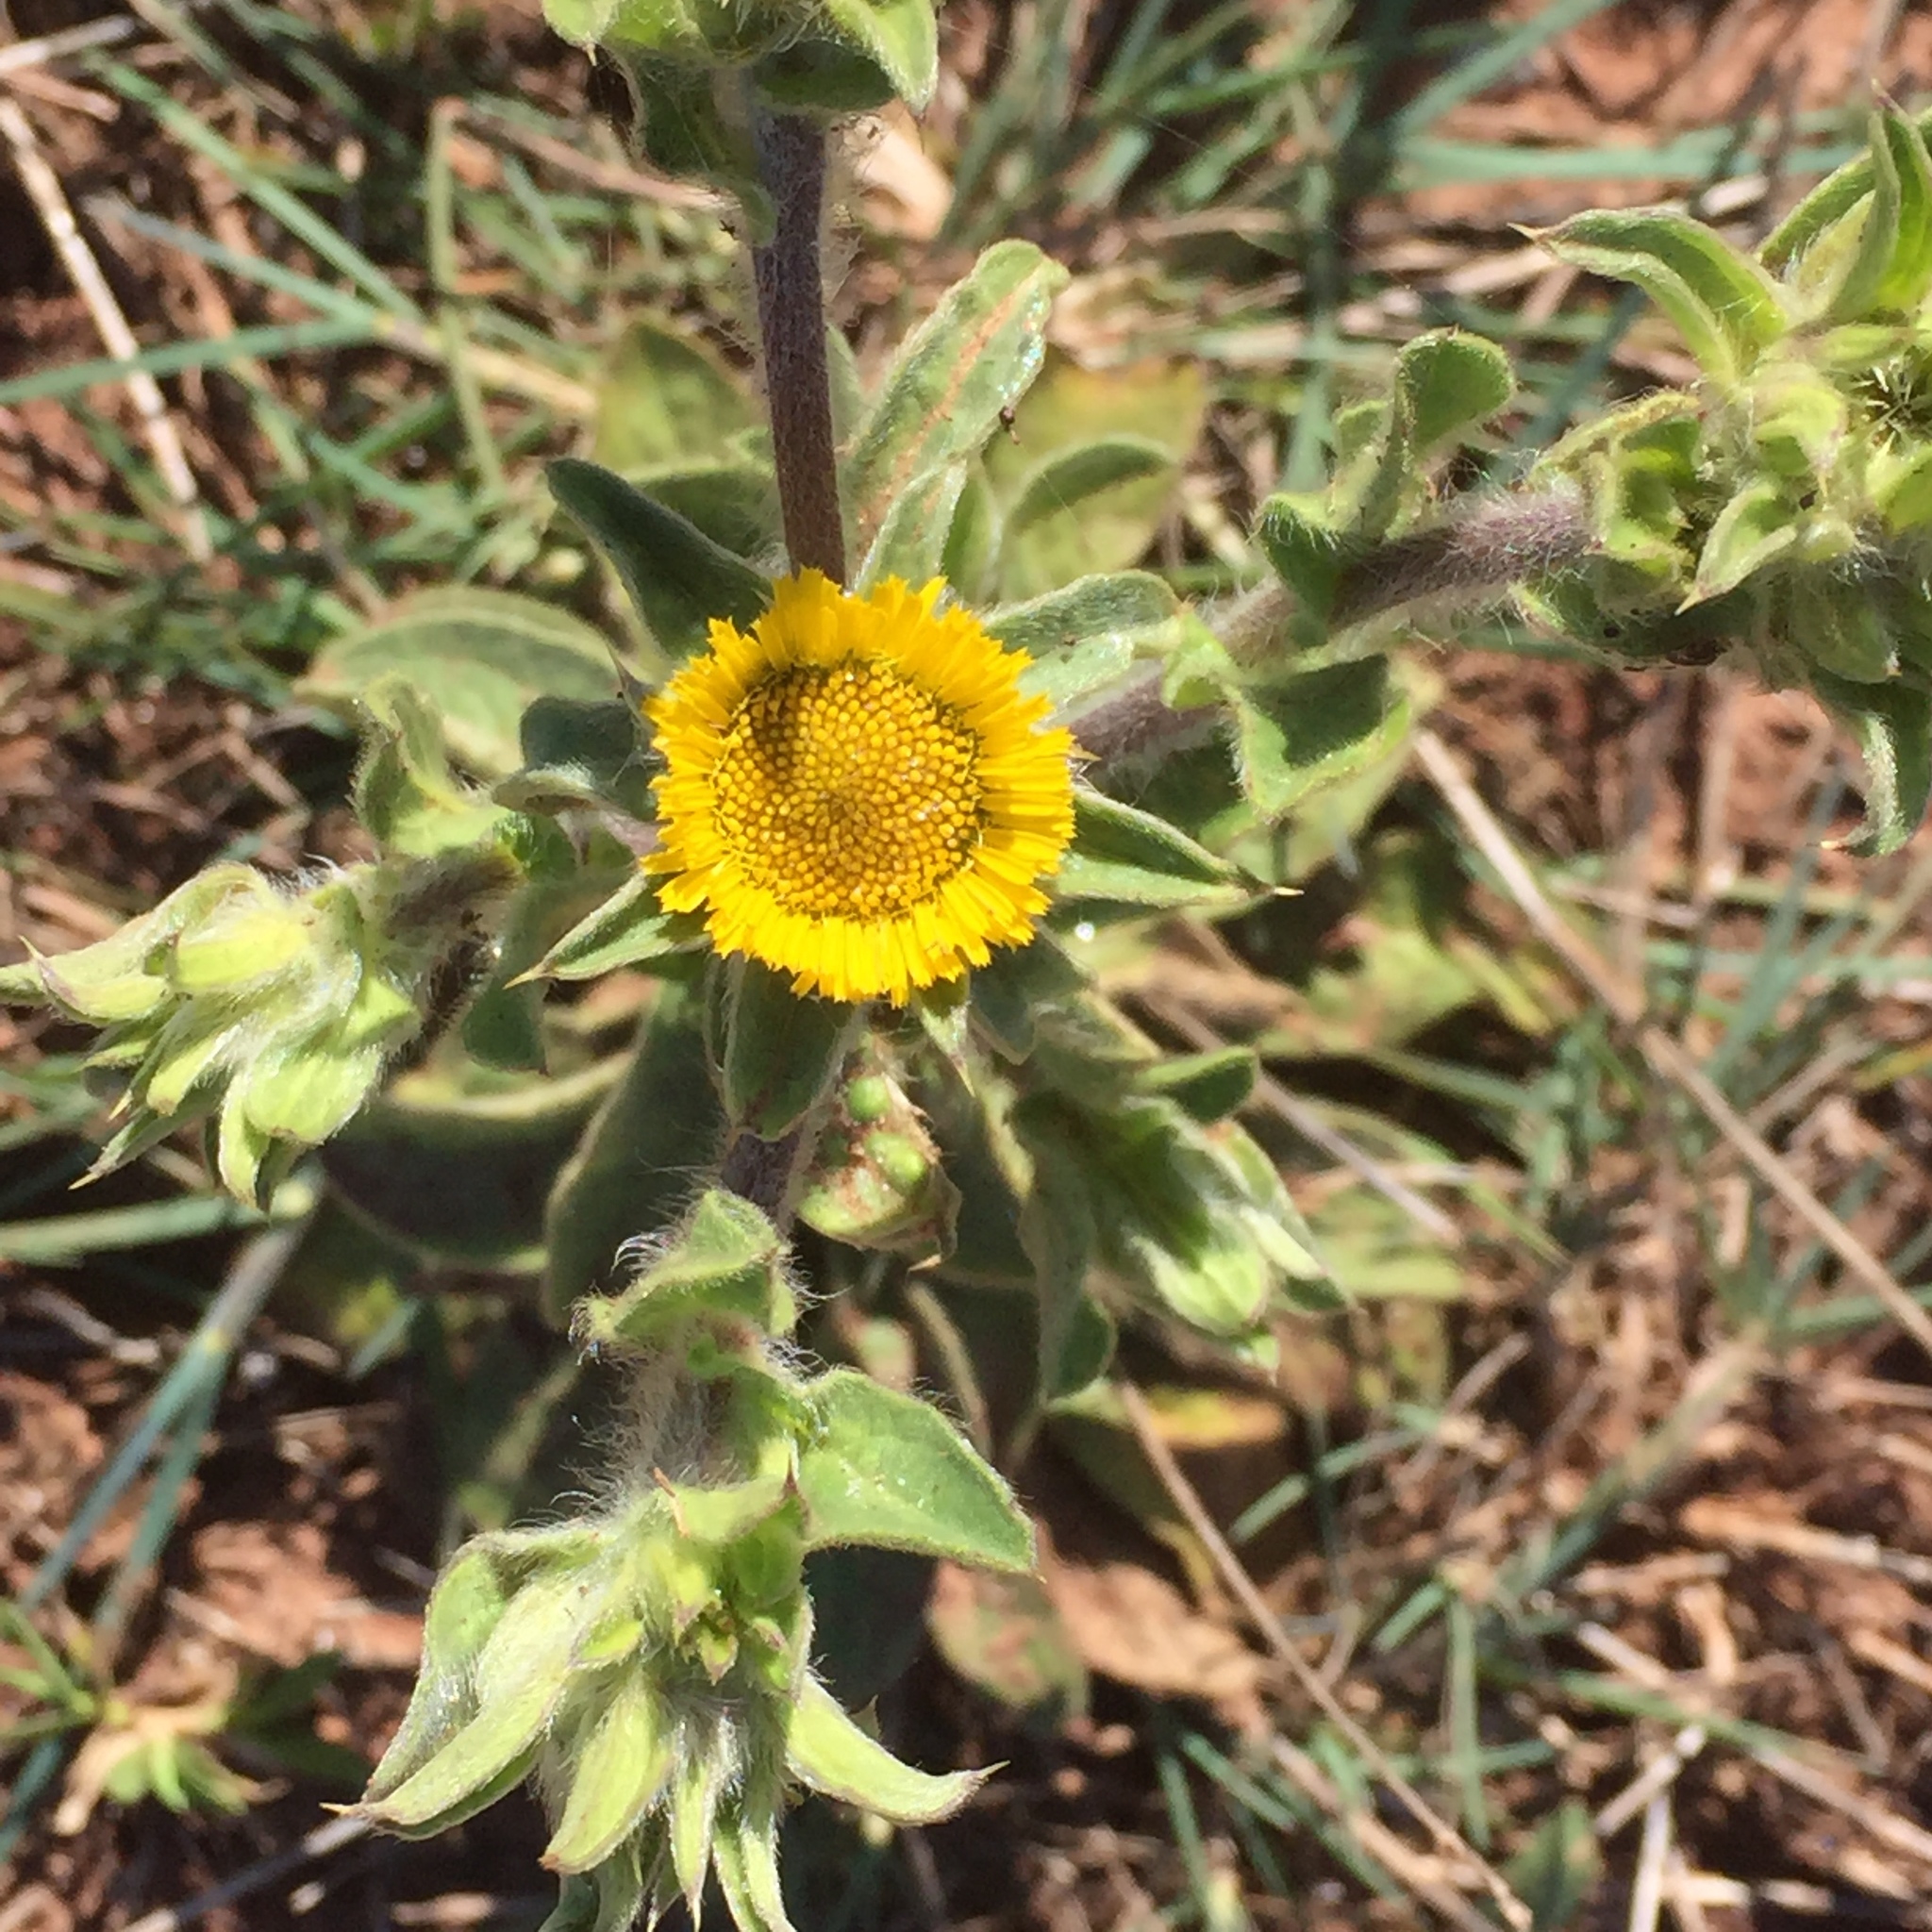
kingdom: Plantae
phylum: Tracheophyta
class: Magnoliopsida
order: Asterales
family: Asteraceae
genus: Pallenis
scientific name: Pallenis spinosa
